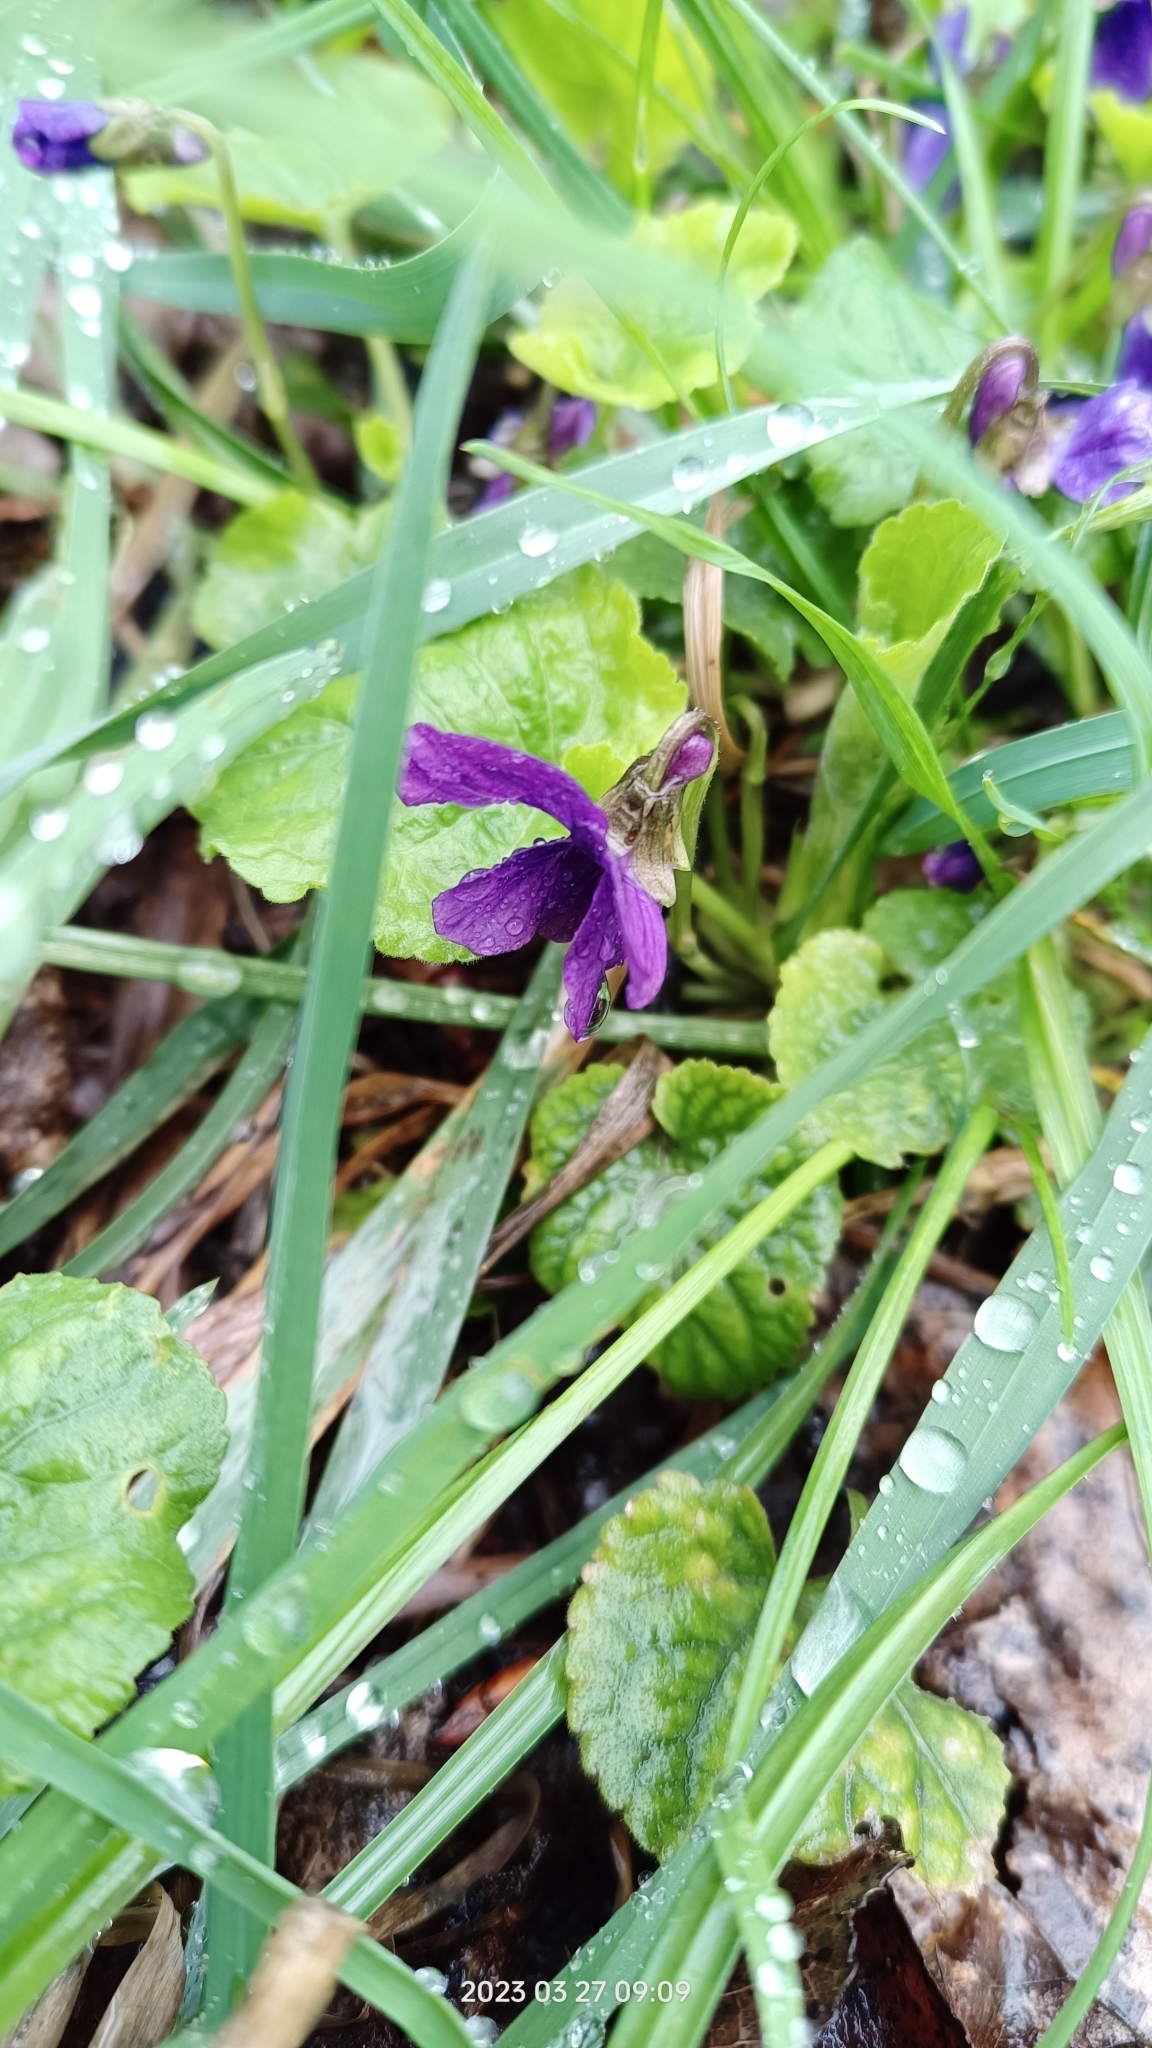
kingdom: Plantae
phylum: Tracheophyta
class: Magnoliopsida
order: Malpighiales
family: Violaceae
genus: Viola
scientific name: Viola odorata
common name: Sweet violet
